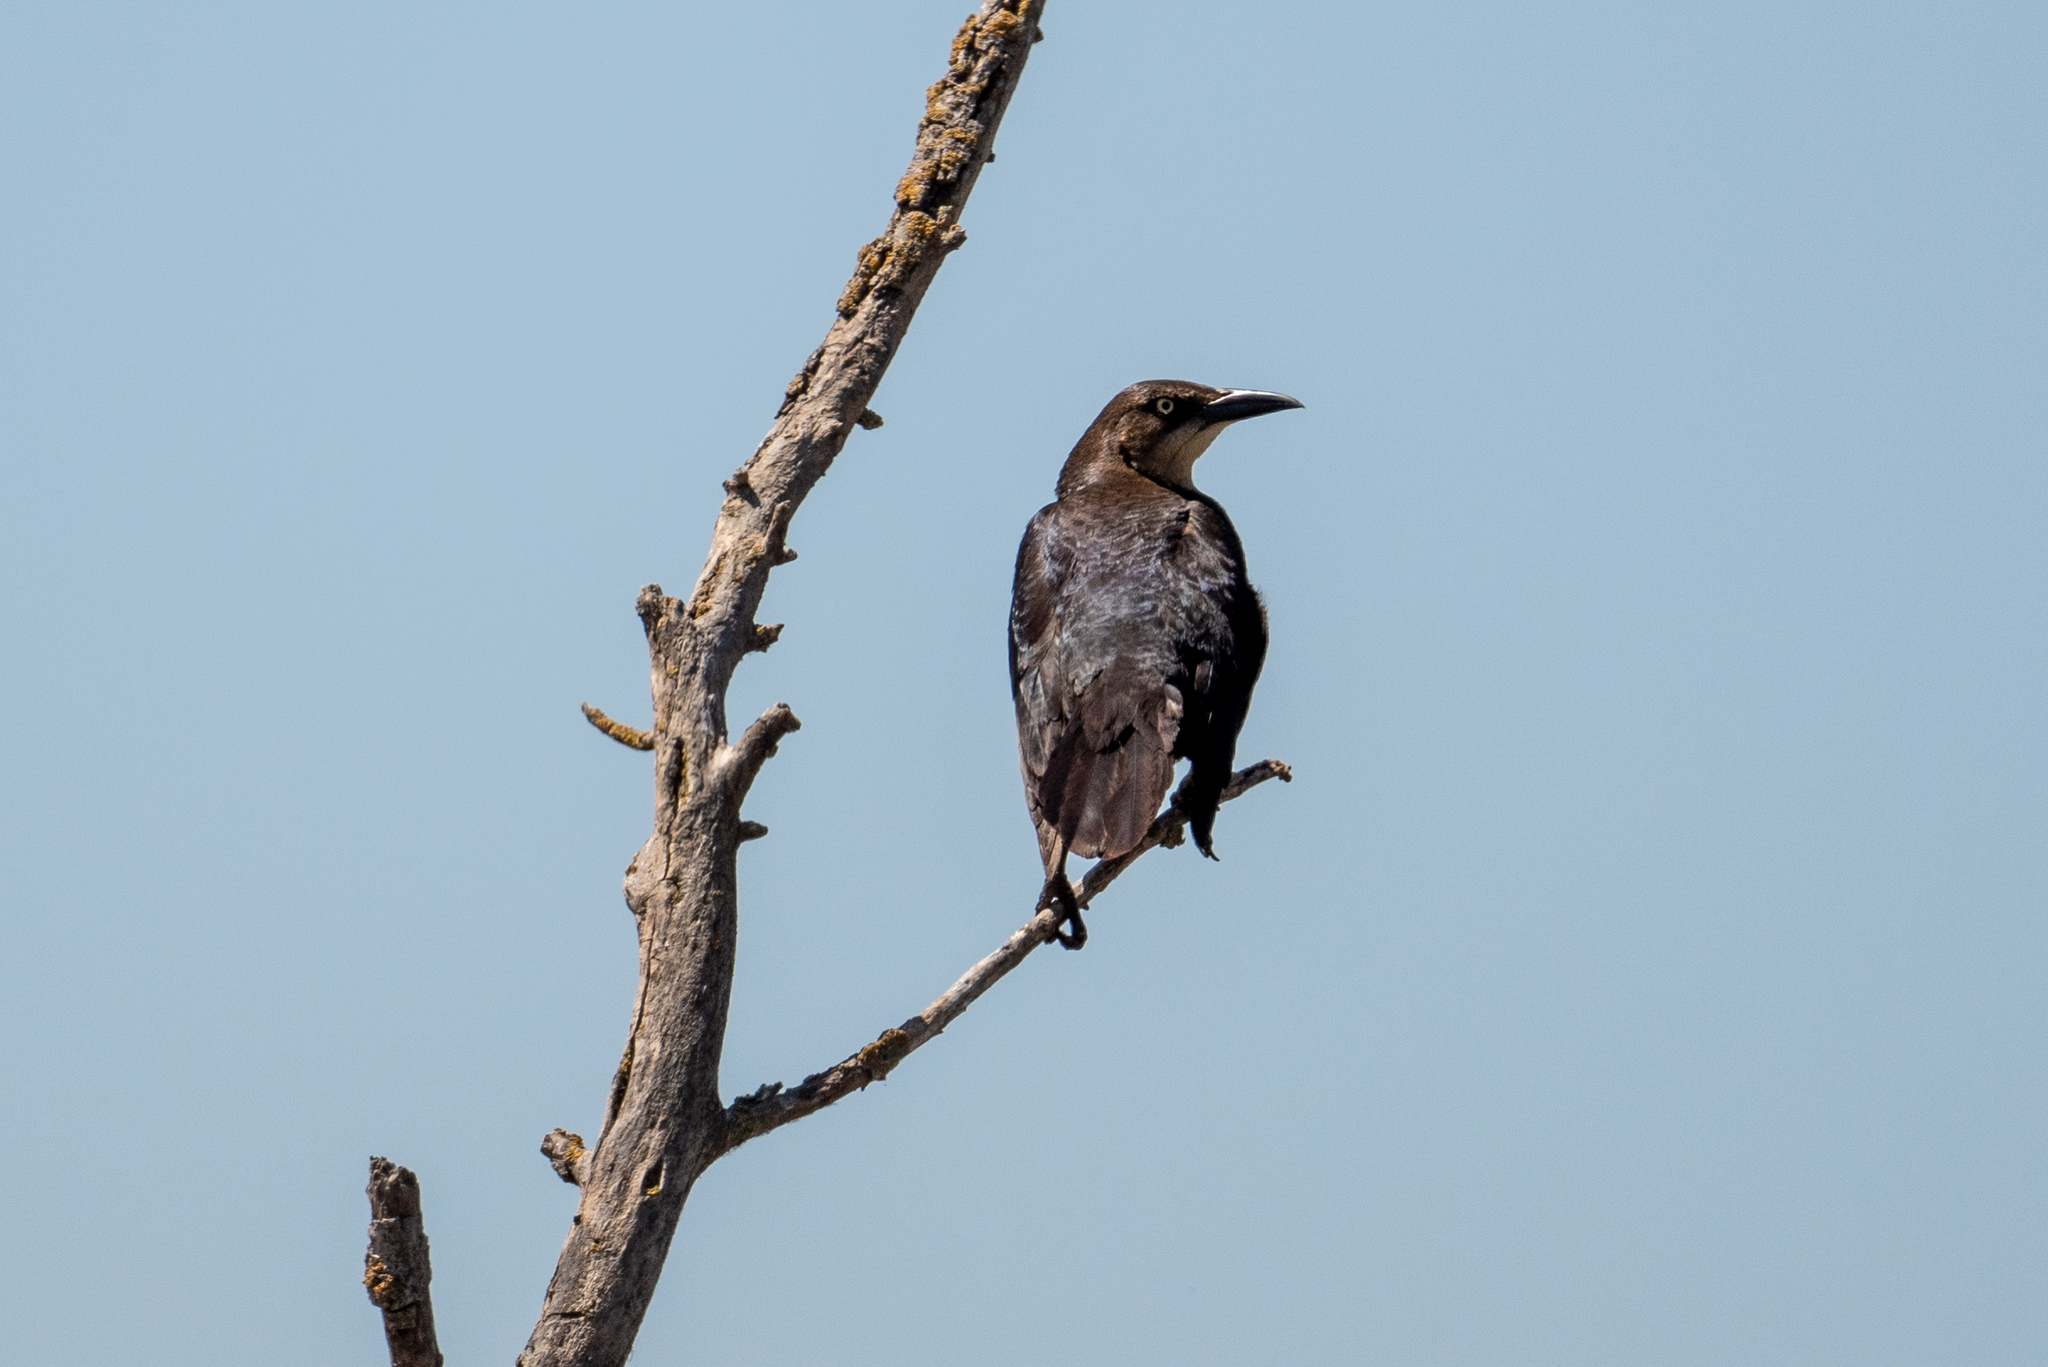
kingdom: Animalia
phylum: Chordata
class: Aves
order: Passeriformes
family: Icteridae
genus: Quiscalus
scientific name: Quiscalus mexicanus
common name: Great-tailed grackle
